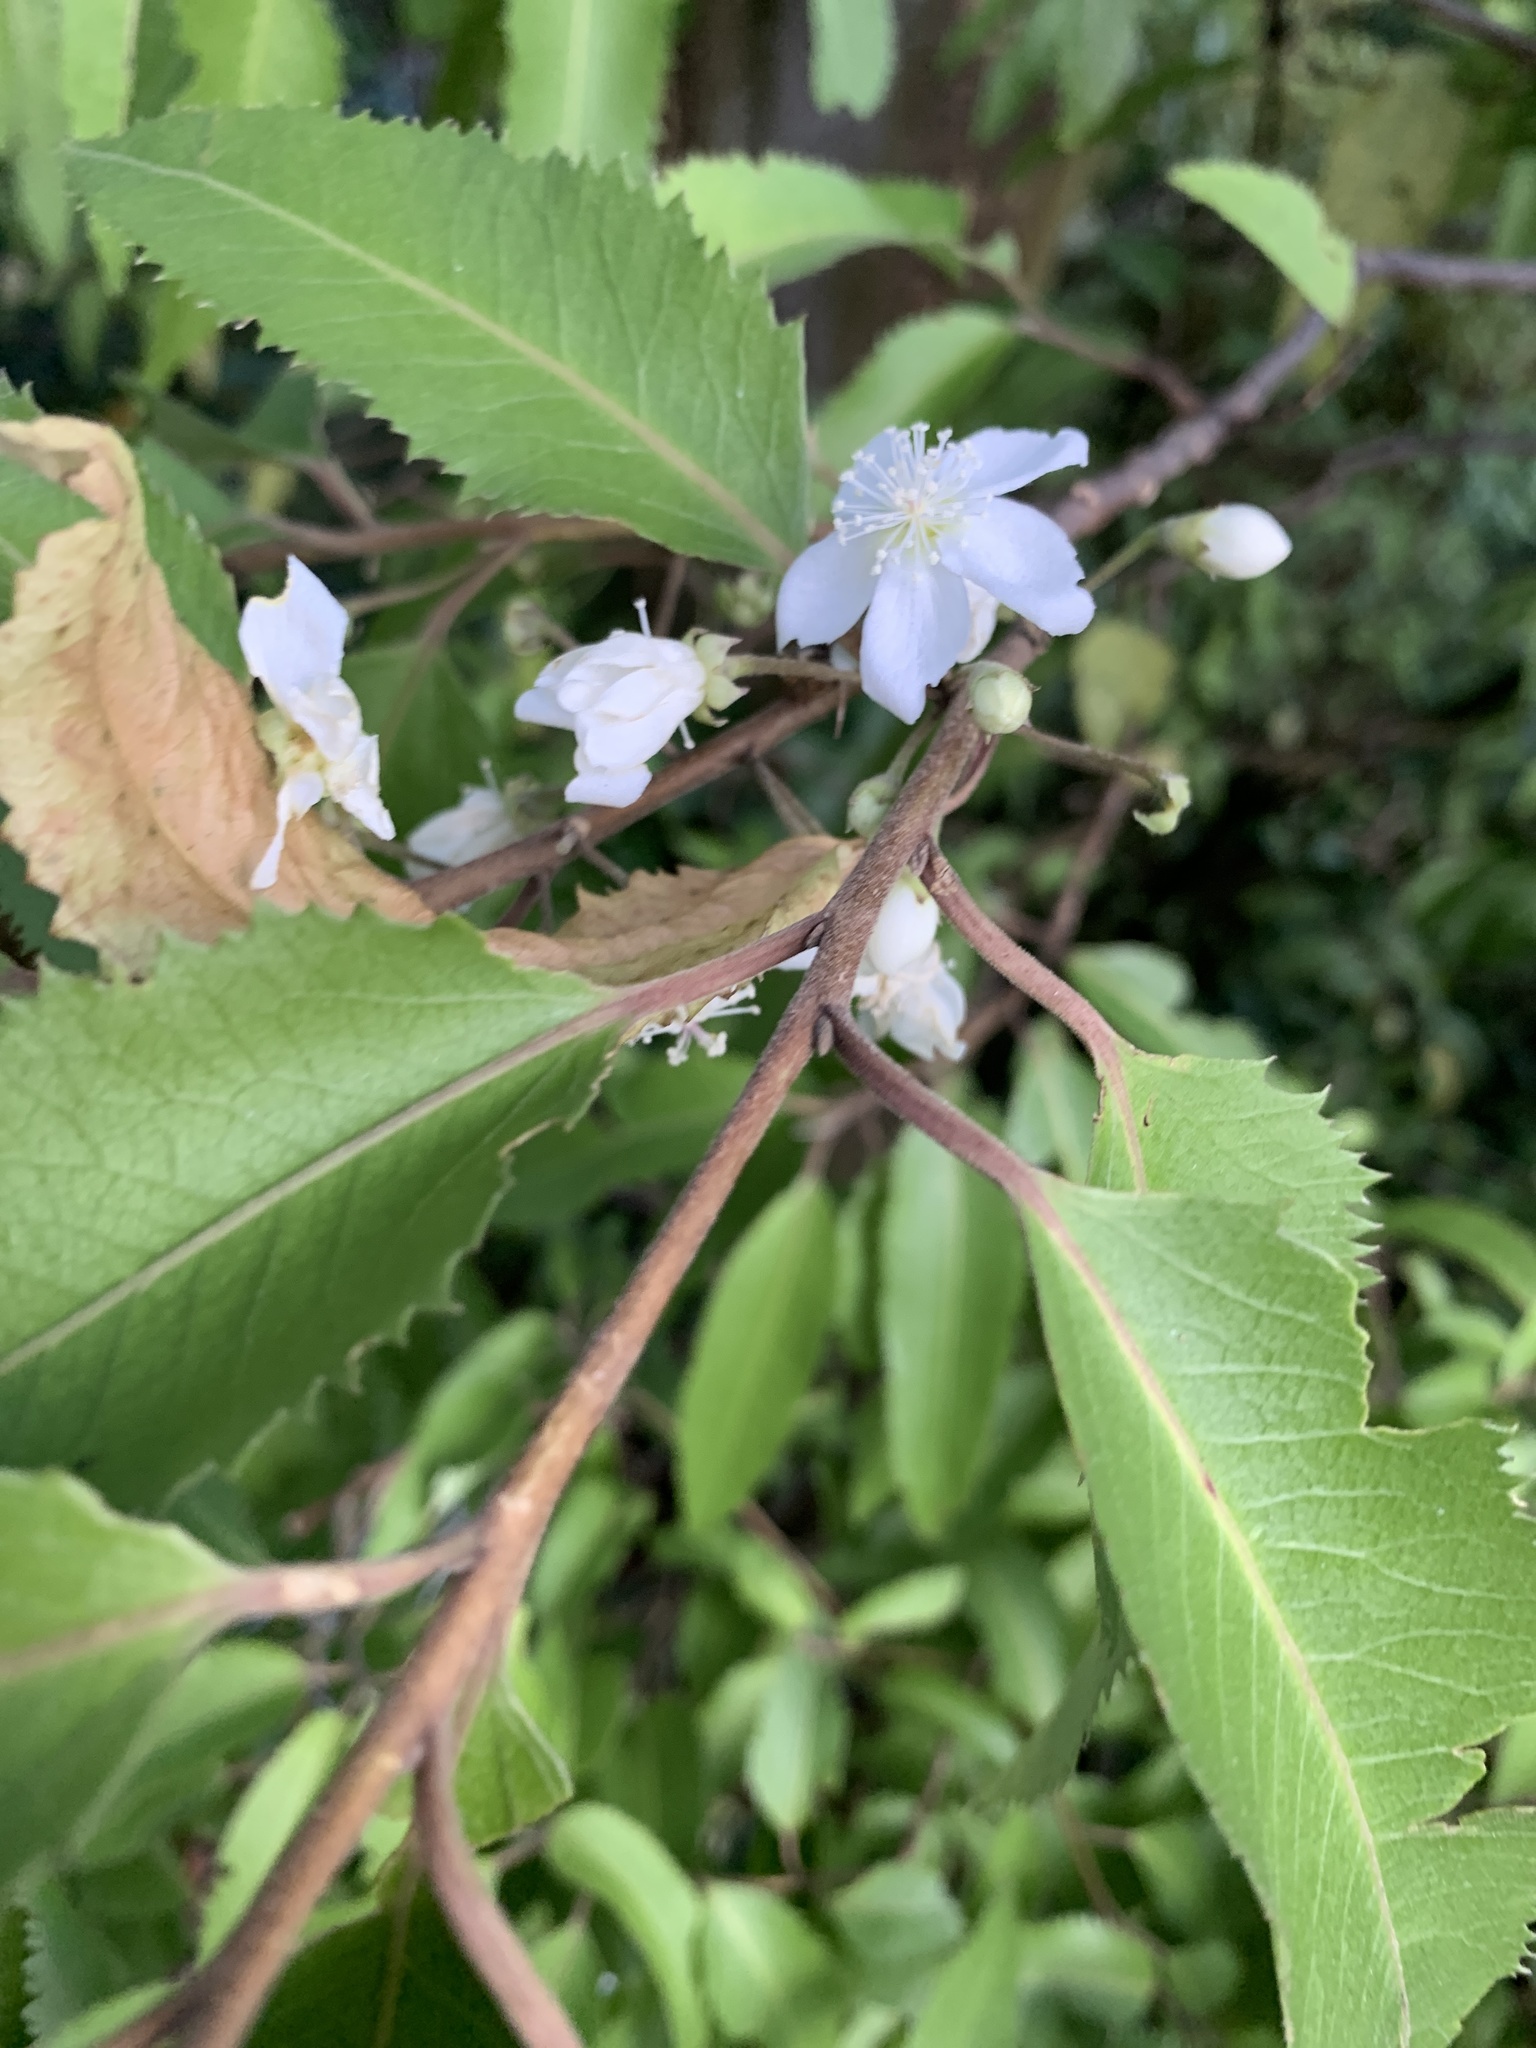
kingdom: Plantae
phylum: Tracheophyta
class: Magnoliopsida
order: Malvales
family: Malvaceae
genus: Hoheria
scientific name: Hoheria sexstylosa
